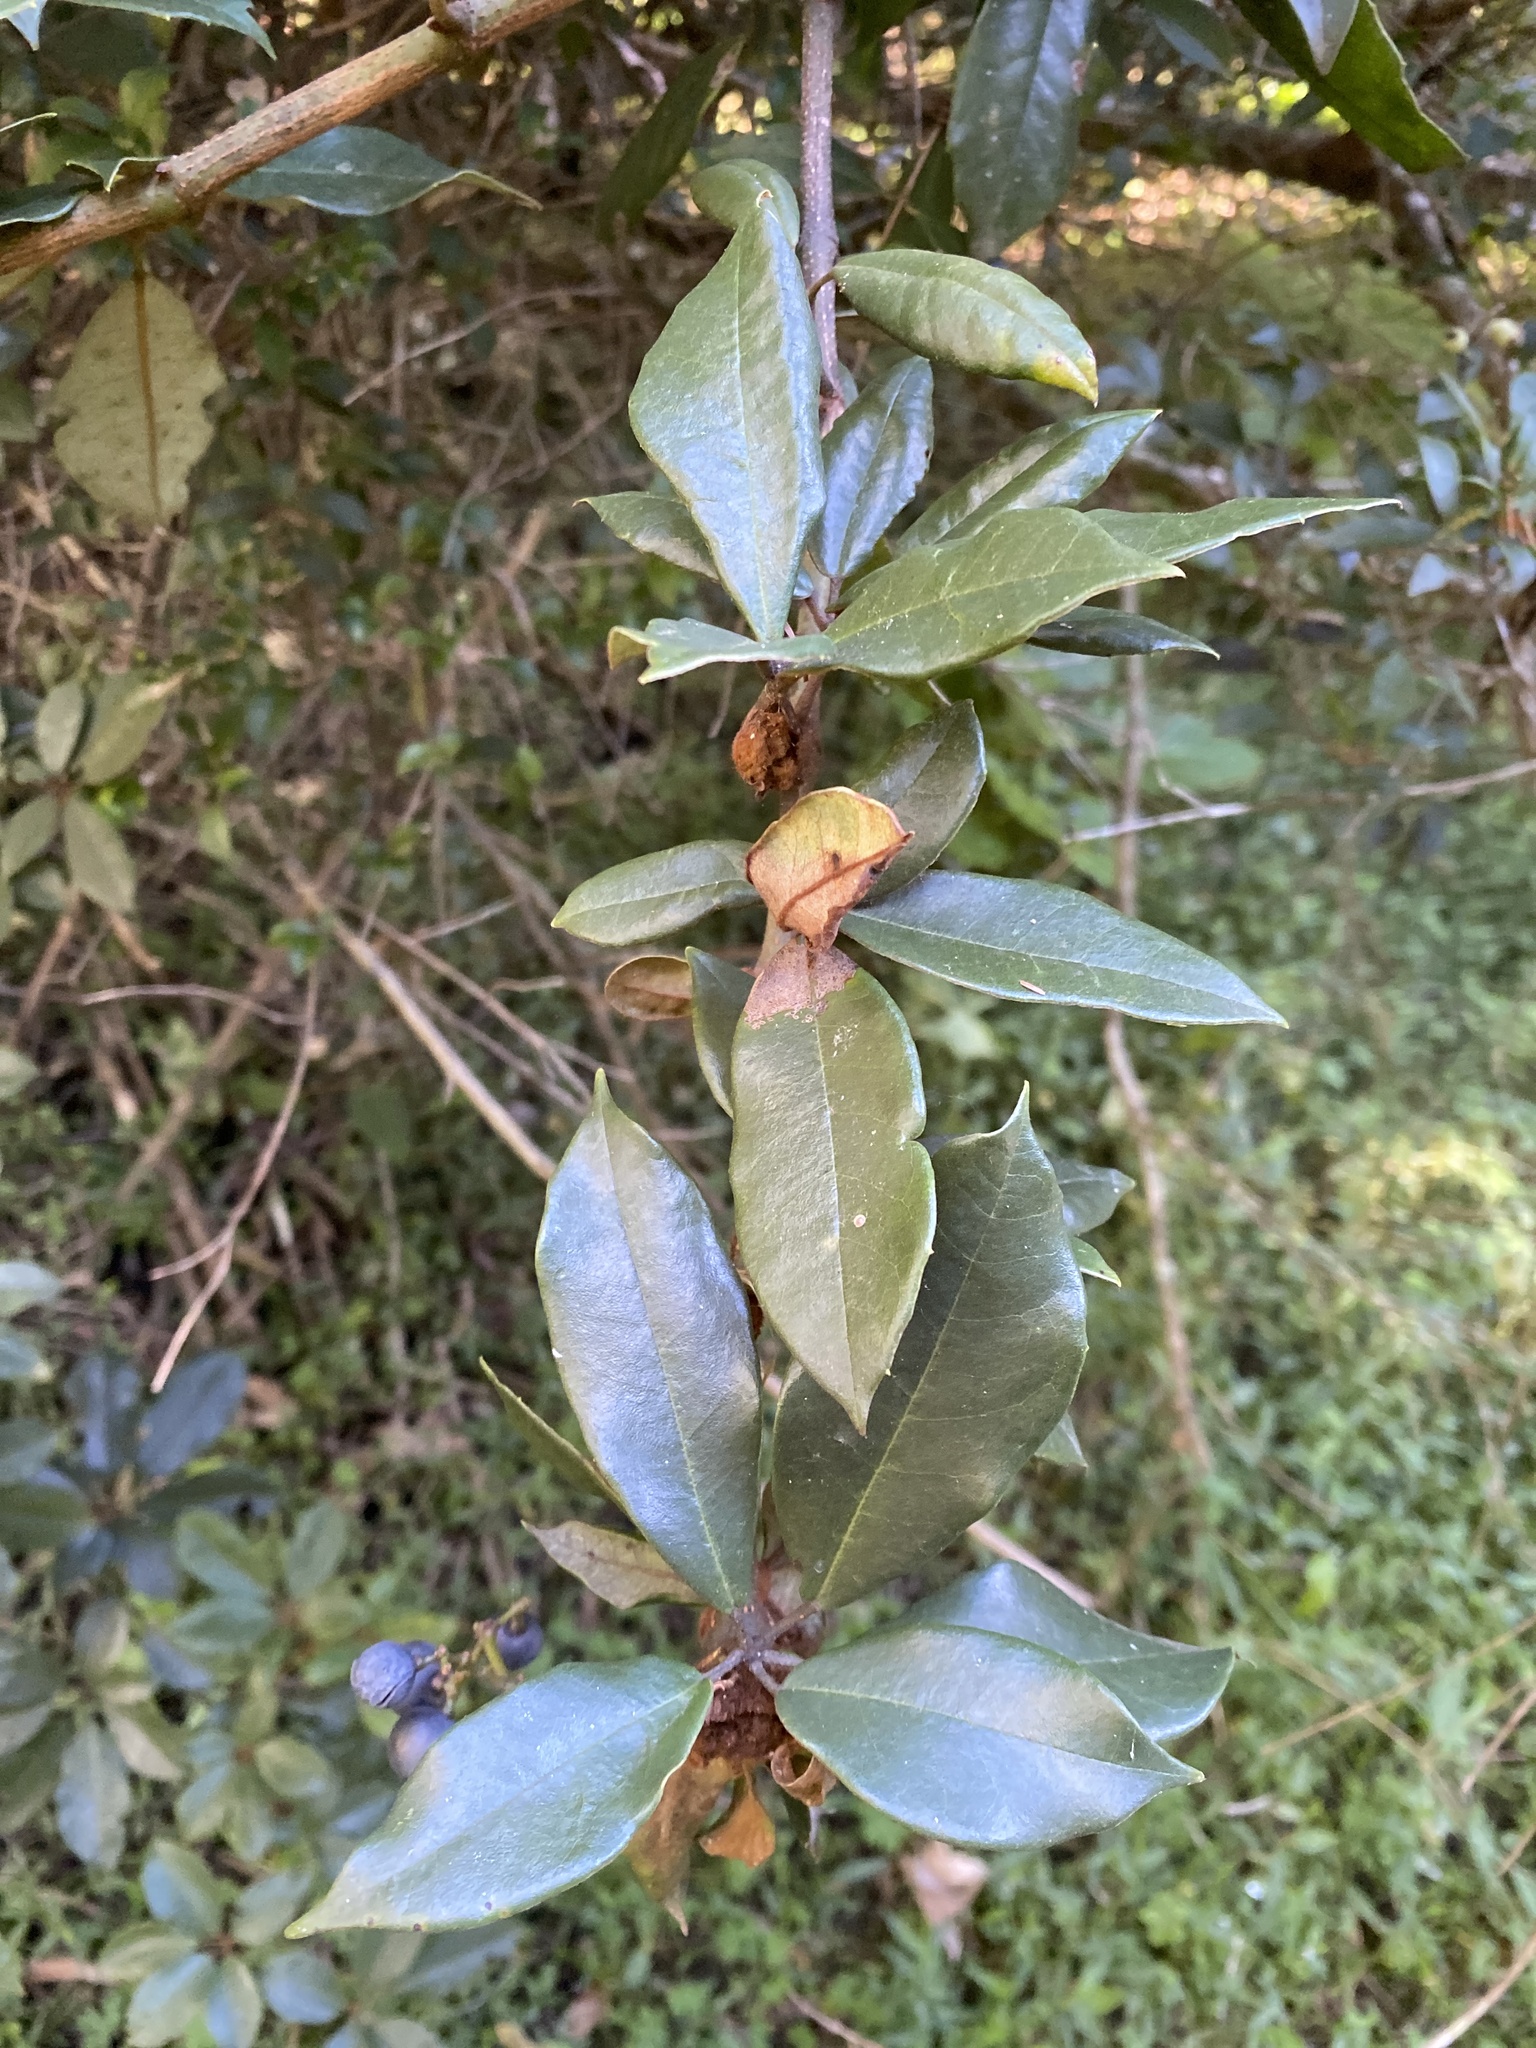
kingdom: Plantae
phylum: Tracheophyta
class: Magnoliopsida
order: Vitales
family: Vitaceae
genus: Nothocissus
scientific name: Nothocissus hypoglauca
